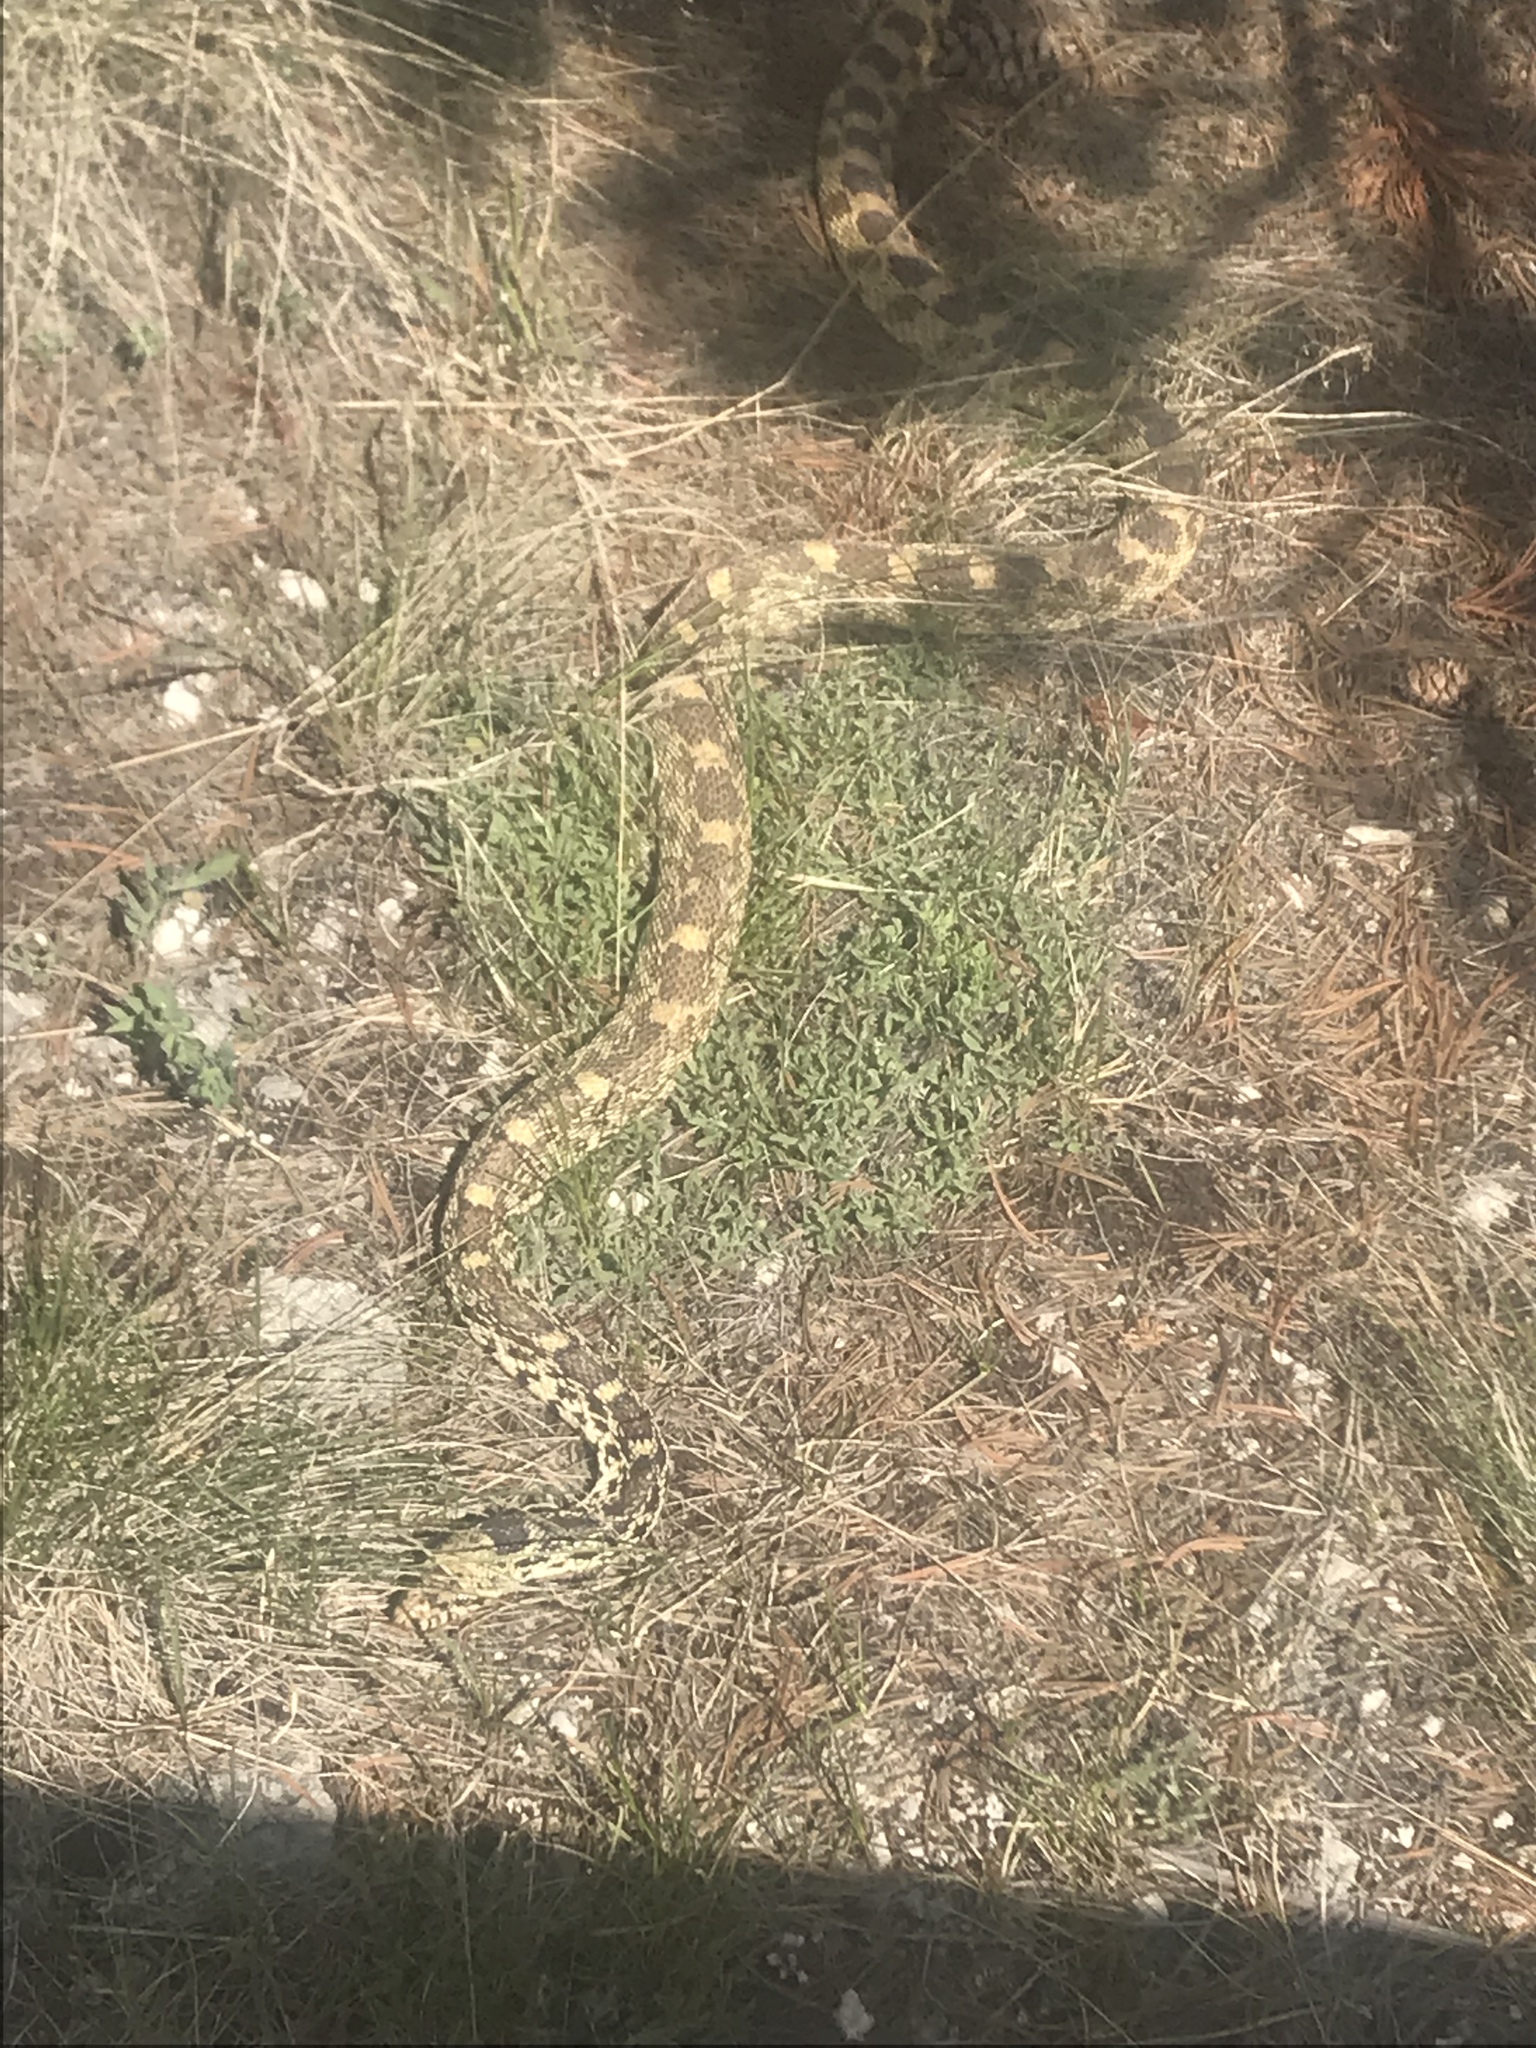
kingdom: Animalia
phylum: Chordata
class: Squamata
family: Colubridae
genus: Pituophis
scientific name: Pituophis catenifer
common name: Gopher snake
